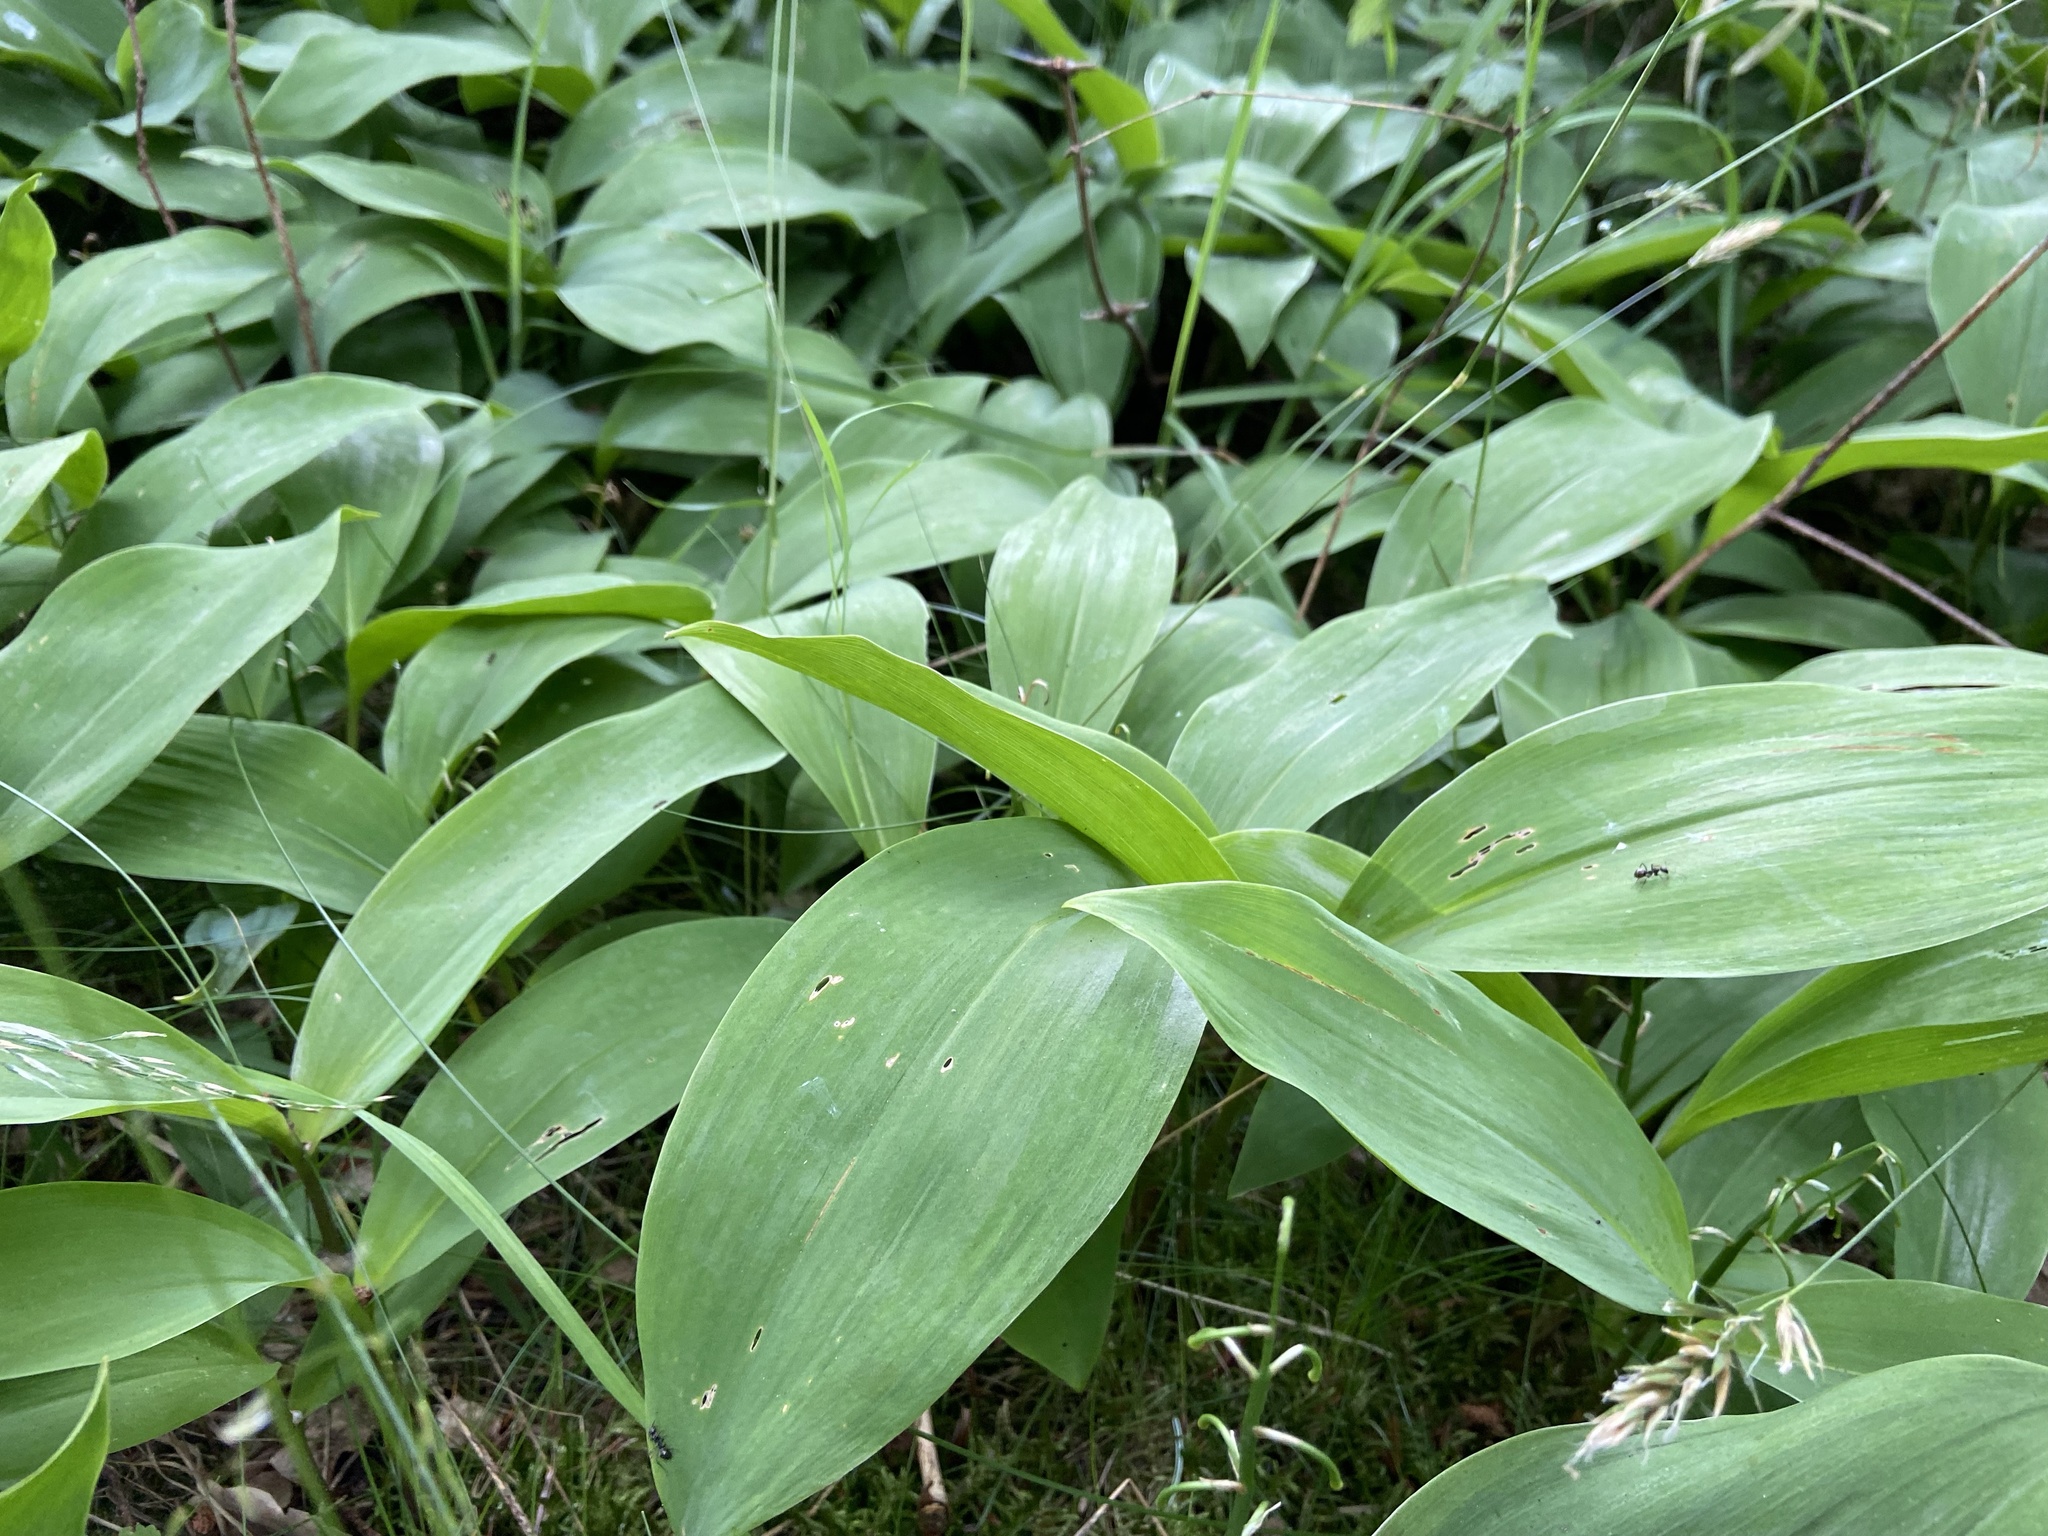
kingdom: Plantae
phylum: Tracheophyta
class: Liliopsida
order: Asparagales
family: Asparagaceae
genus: Convallaria
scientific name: Convallaria majalis
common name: Lily-of-the-valley
